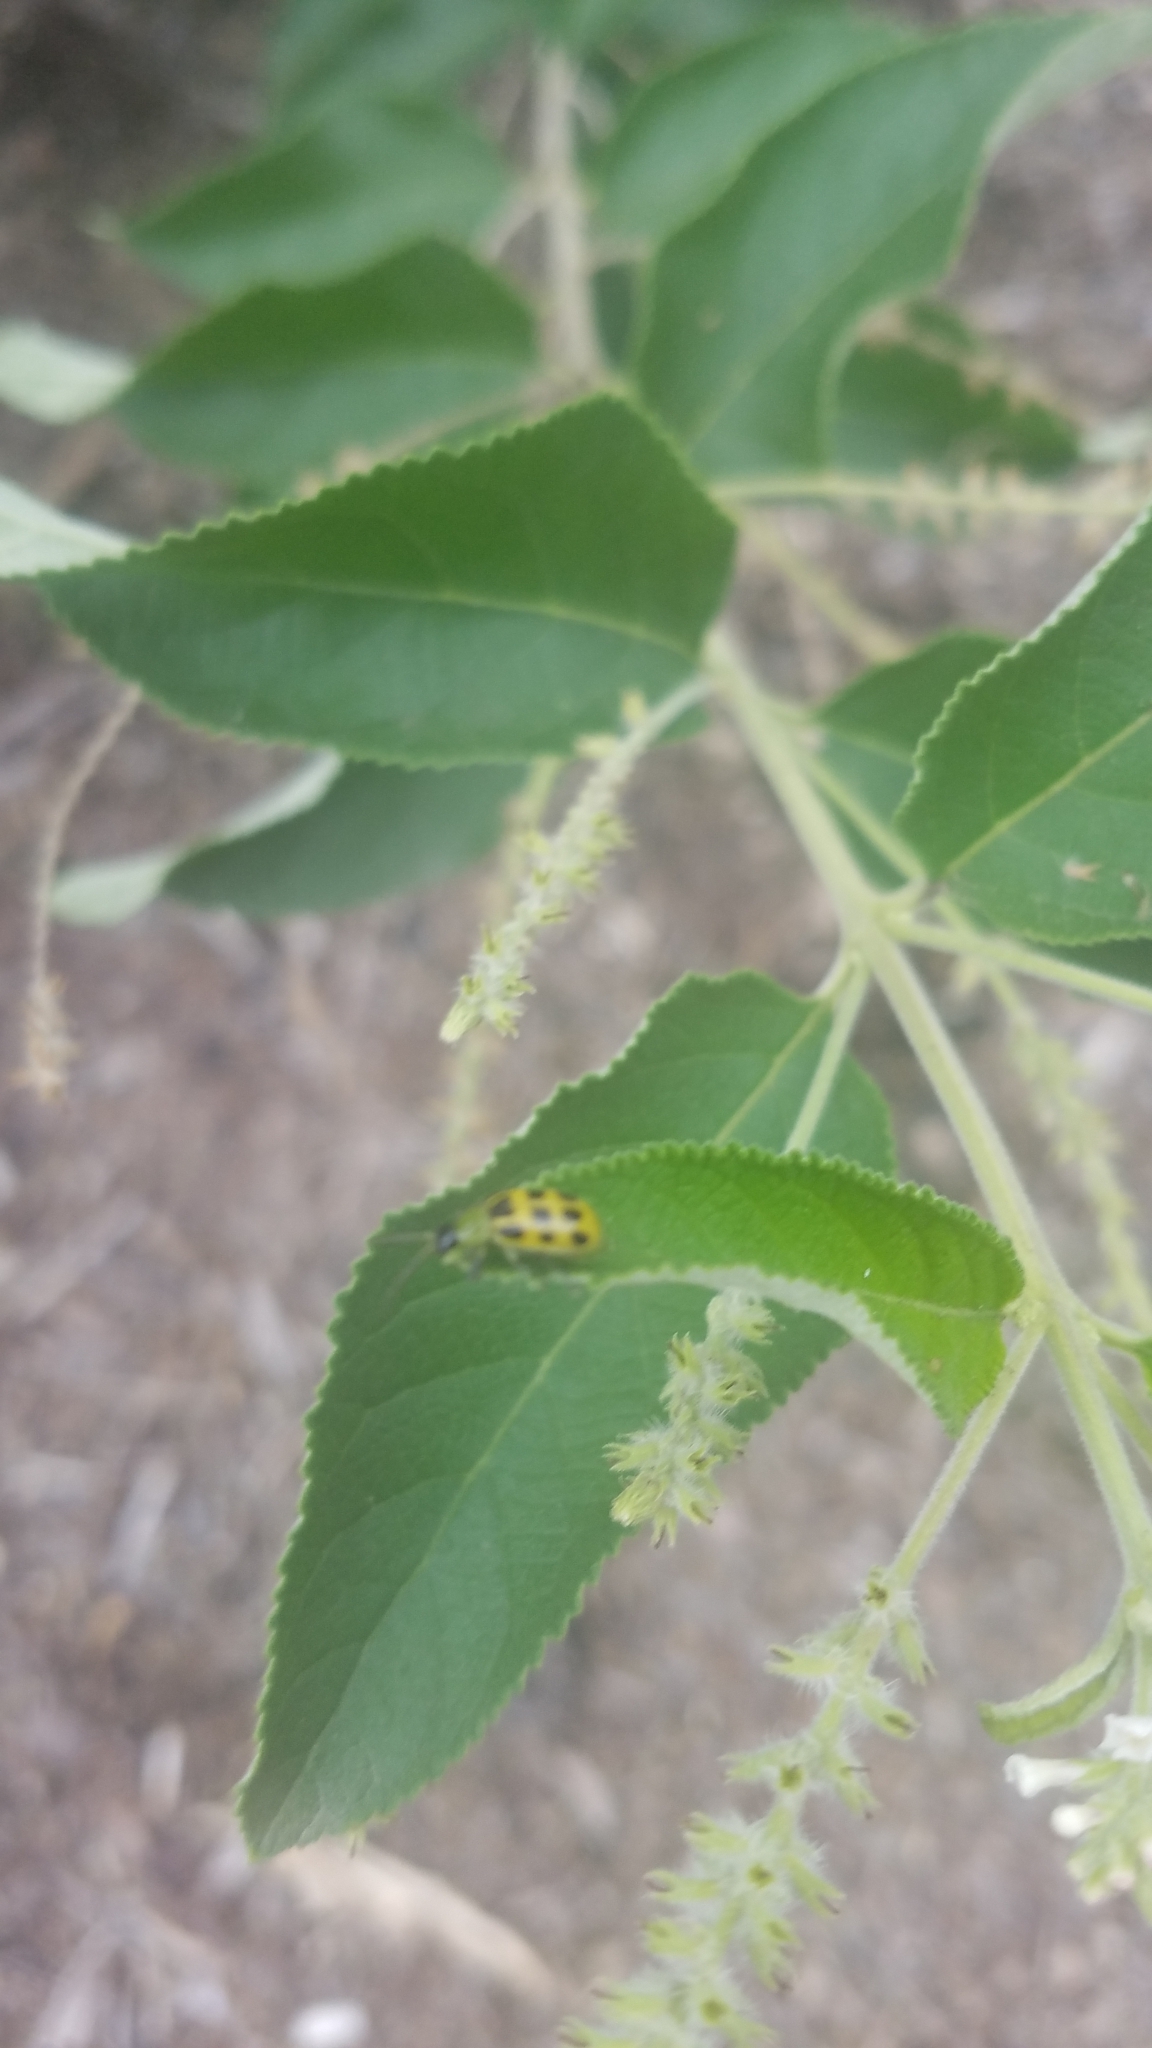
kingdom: Animalia
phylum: Arthropoda
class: Insecta
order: Coleoptera
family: Chrysomelidae
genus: Diabrotica
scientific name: Diabrotica undecimpunctata
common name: Spotted cucumber beetle
